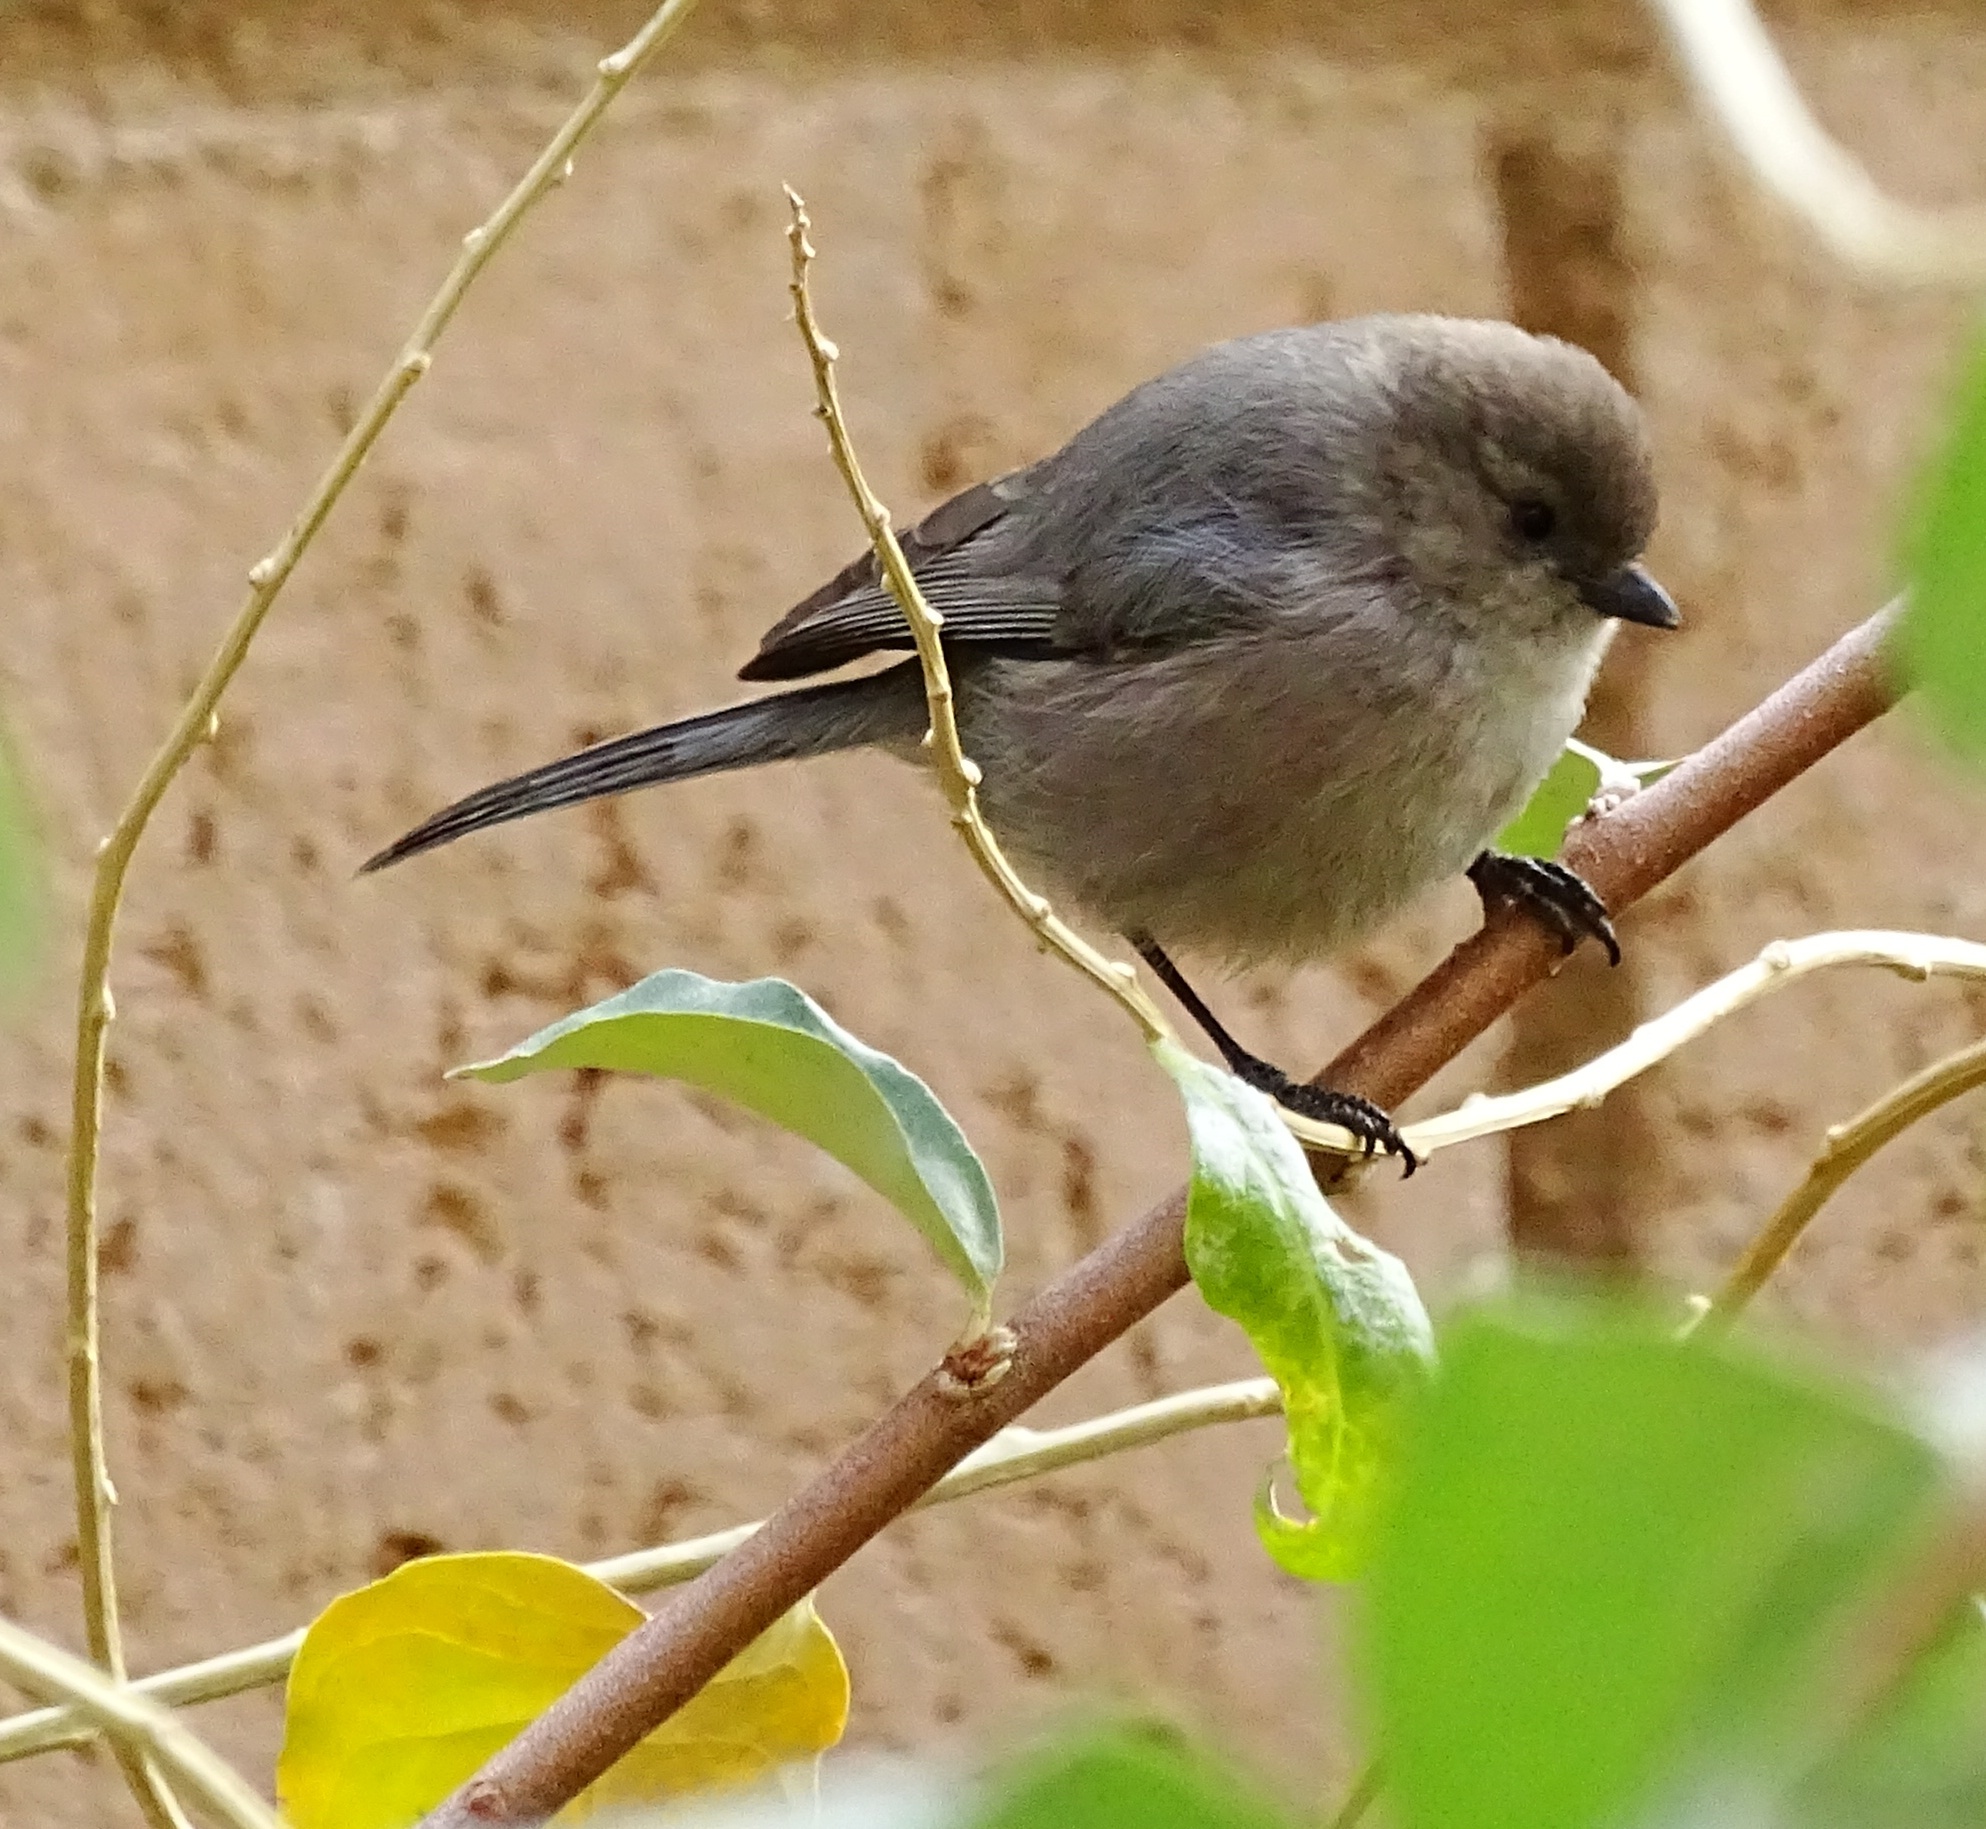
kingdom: Animalia
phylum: Chordata
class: Aves
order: Passeriformes
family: Aegithalidae
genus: Psaltriparus
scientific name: Psaltriparus minimus
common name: American bushtit
